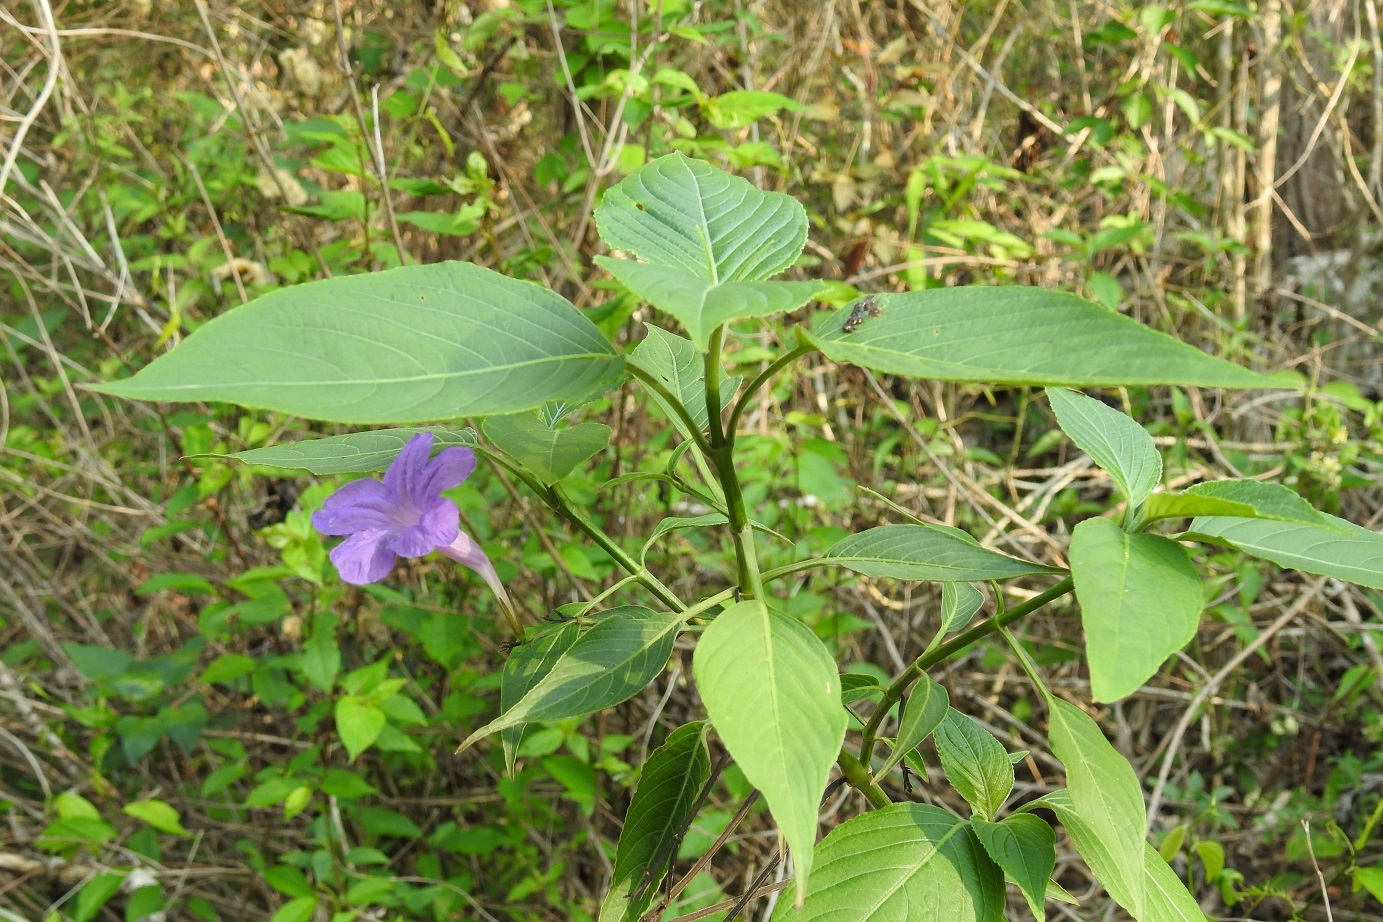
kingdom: Plantae
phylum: Tracheophyta
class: Magnoliopsida
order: Lamiales
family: Acanthaceae
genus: Ruellia
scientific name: Ruellia breedlovei
